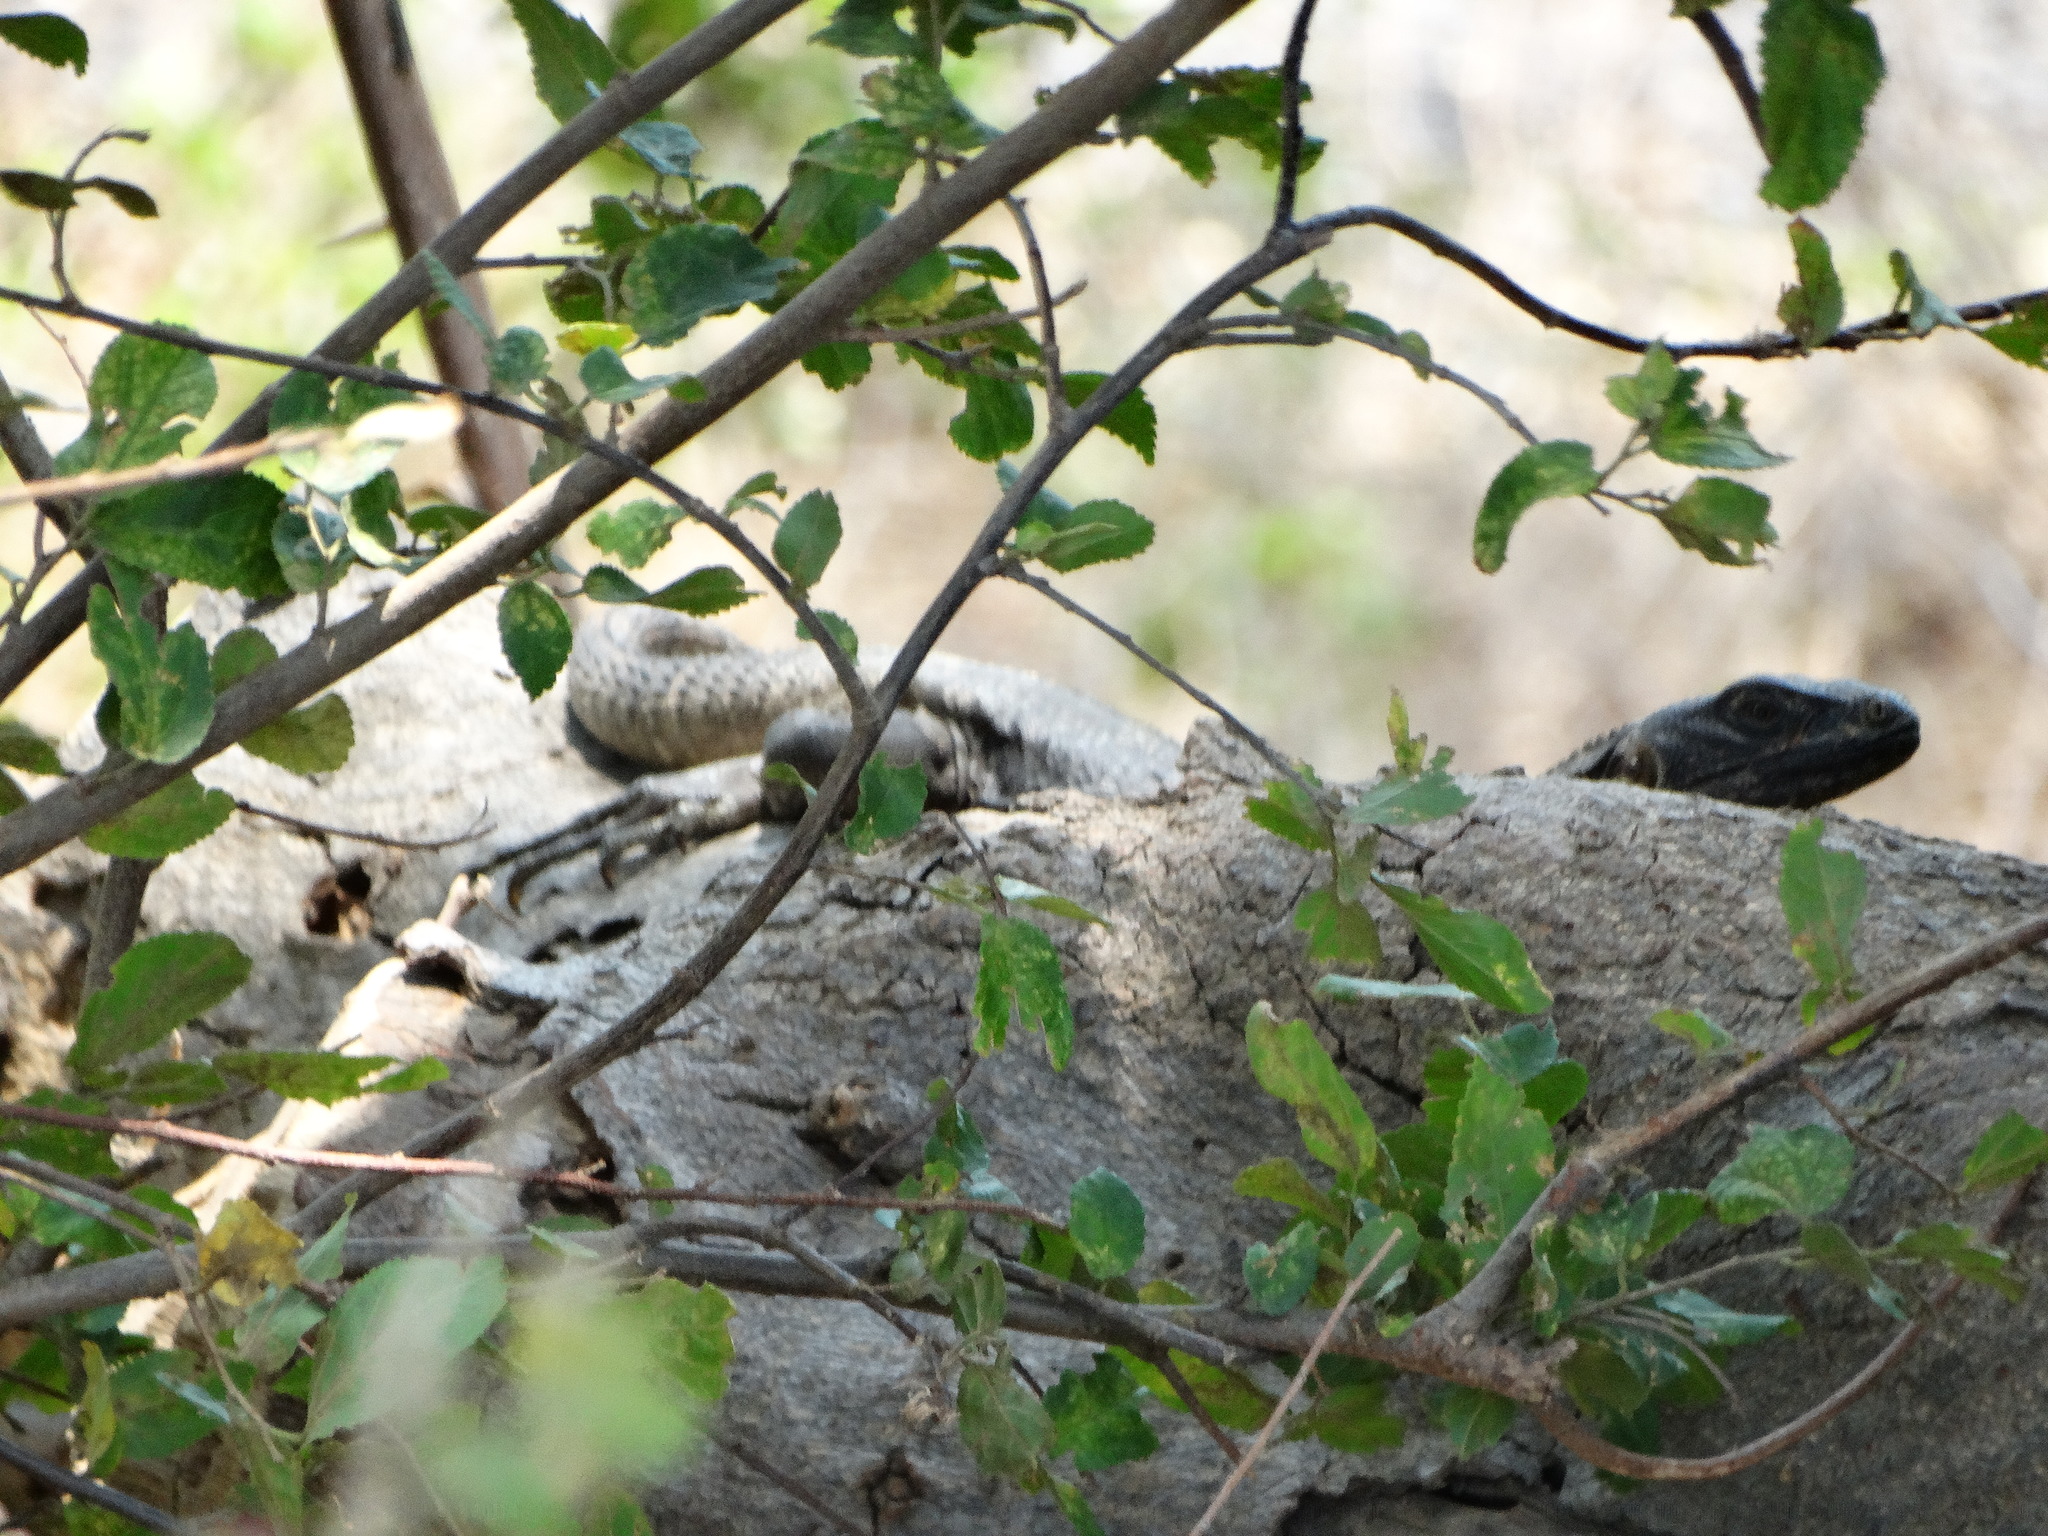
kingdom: Animalia
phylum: Chordata
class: Squamata
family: Iguanidae
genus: Ctenosaura
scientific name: Ctenosaura pectinata
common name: Guerreran spiny-tailed iguana
